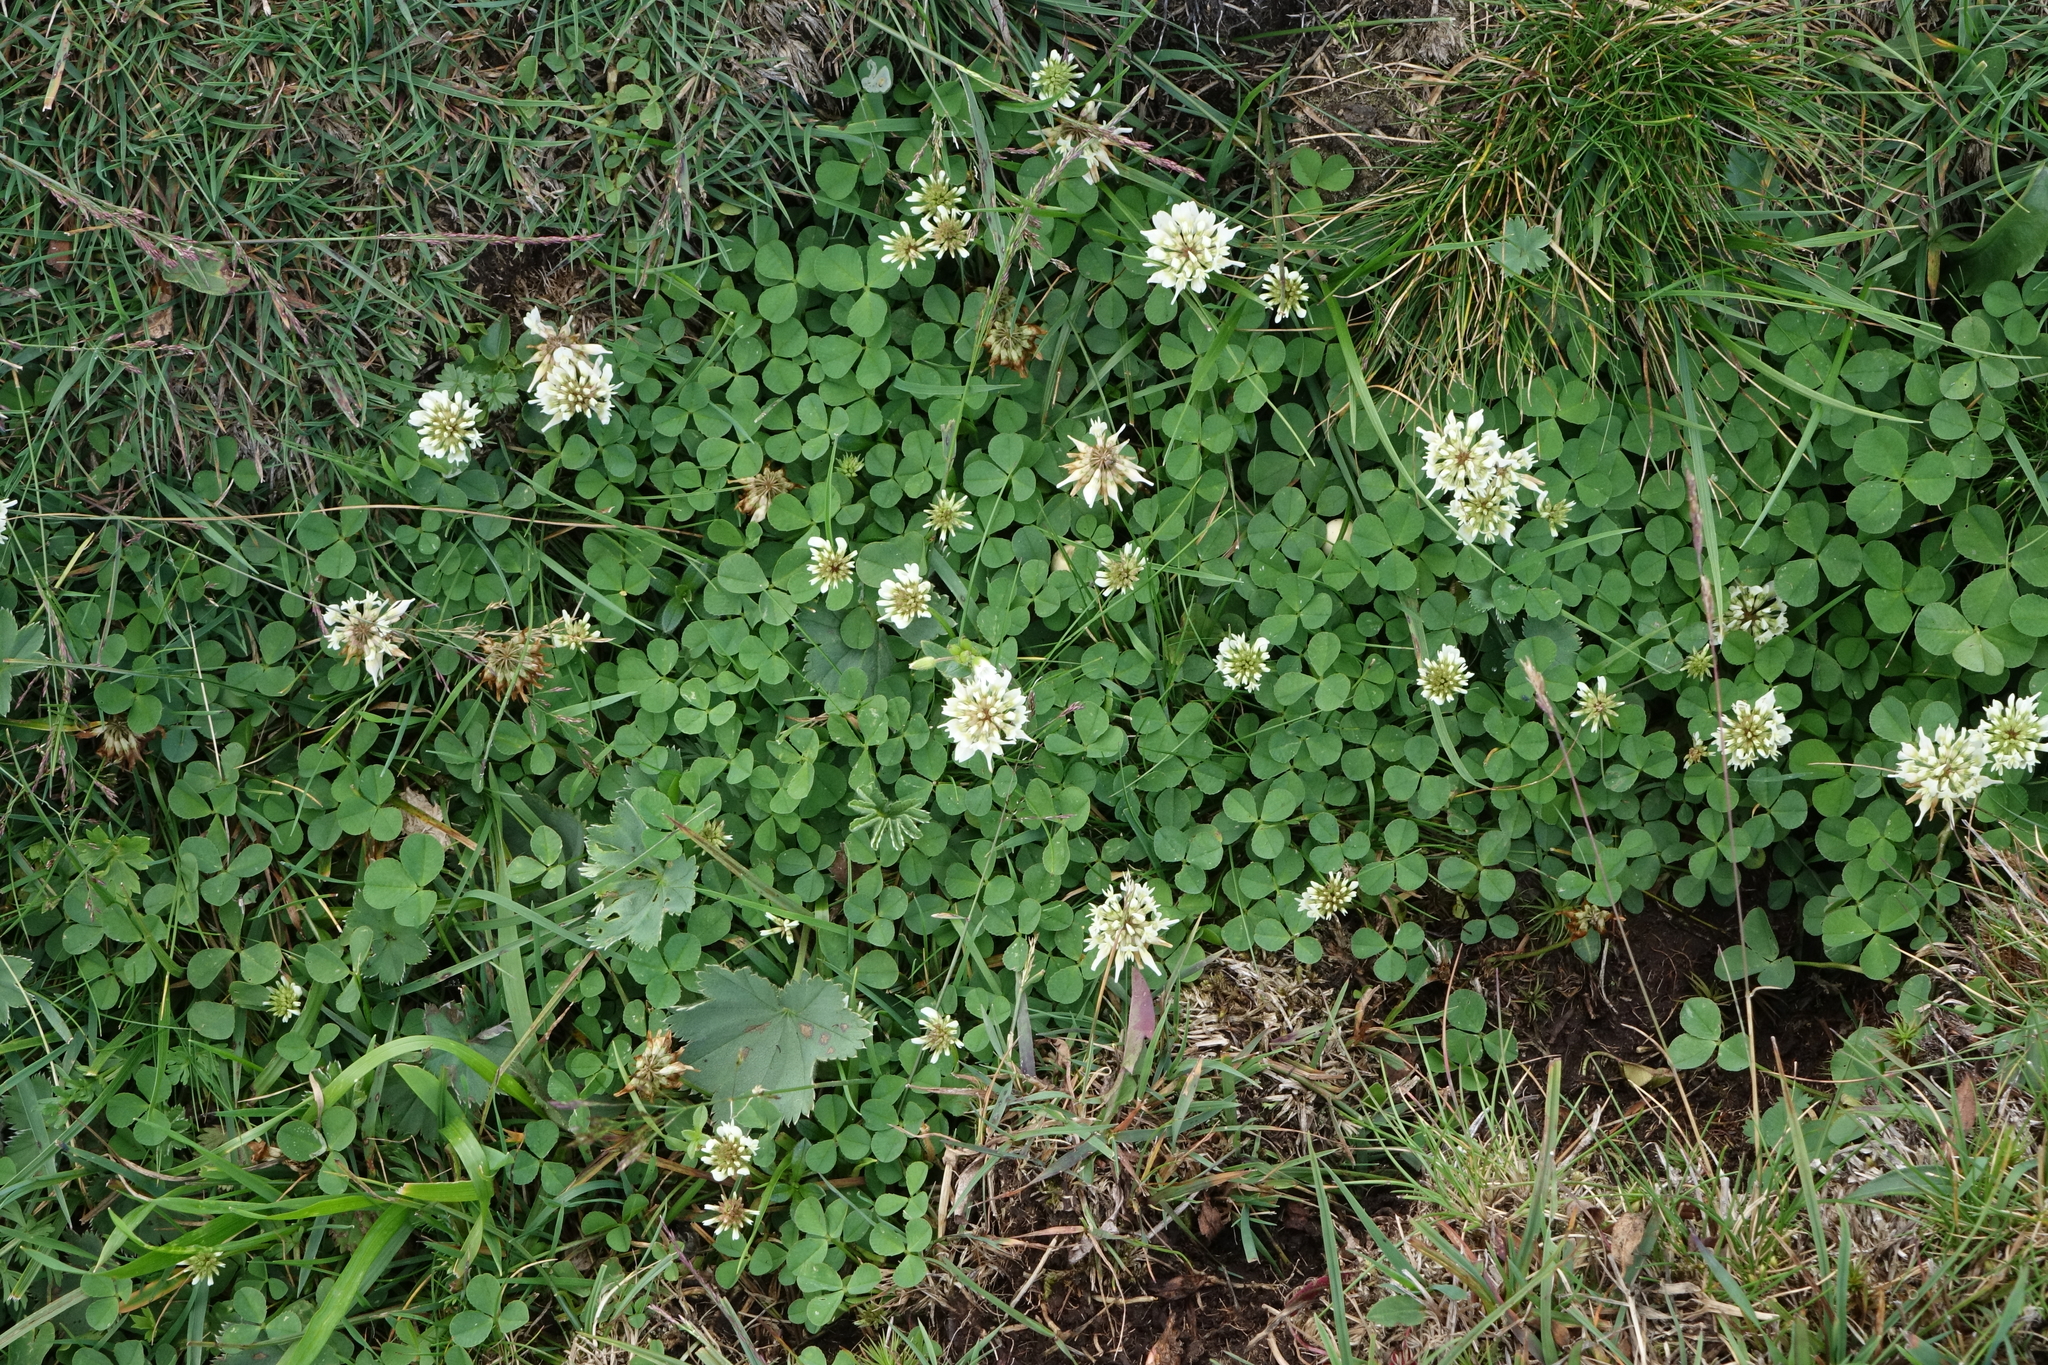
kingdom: Plantae
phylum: Tracheophyta
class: Magnoliopsida
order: Fabales
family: Fabaceae
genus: Trifolium
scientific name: Trifolium repens
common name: White clover
